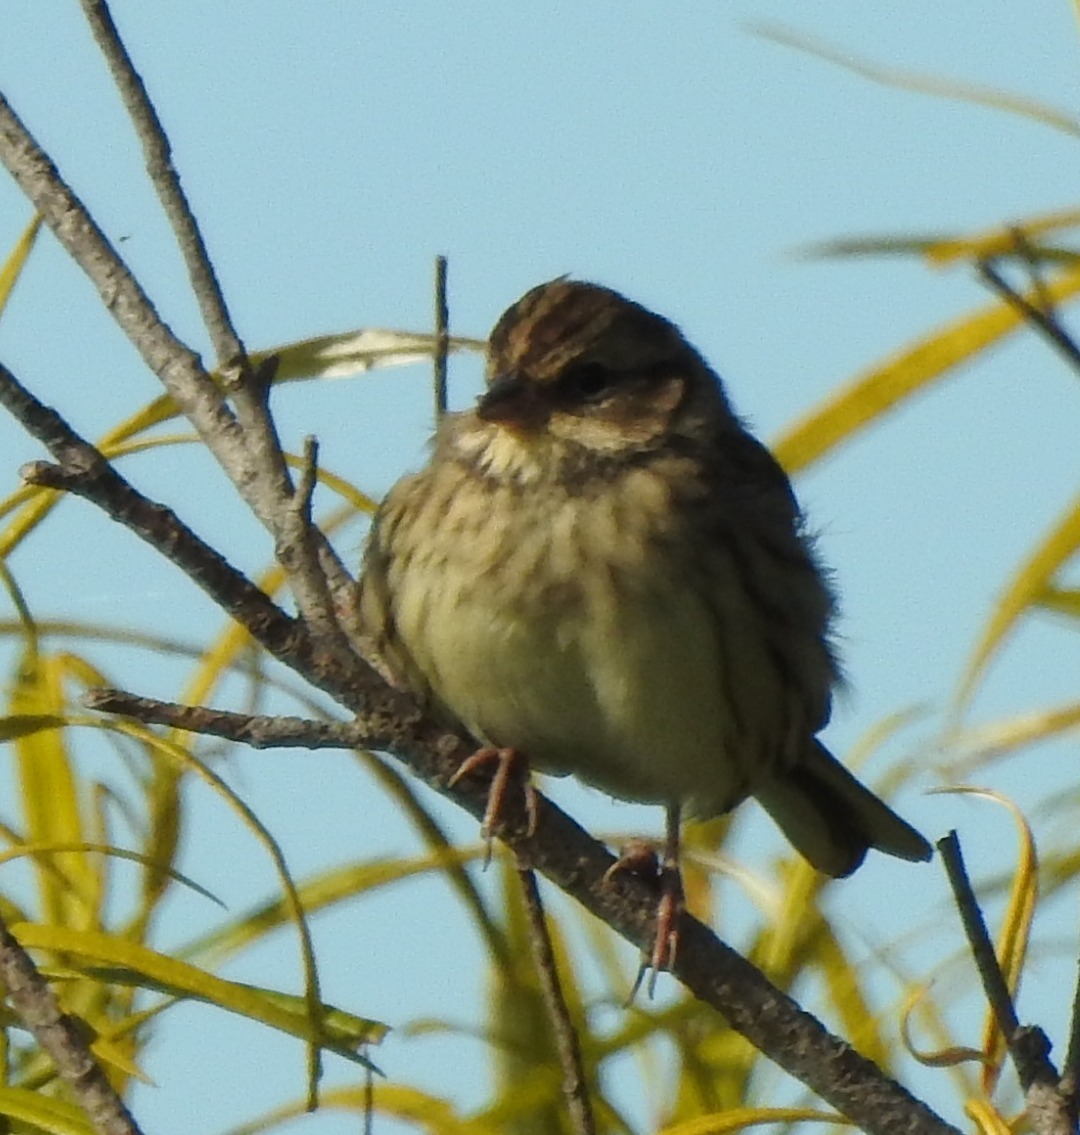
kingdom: Animalia
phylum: Chordata
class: Aves
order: Passeriformes
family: Emberizidae
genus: Emberiza
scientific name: Emberiza spodocephala
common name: Black-faced bunting
